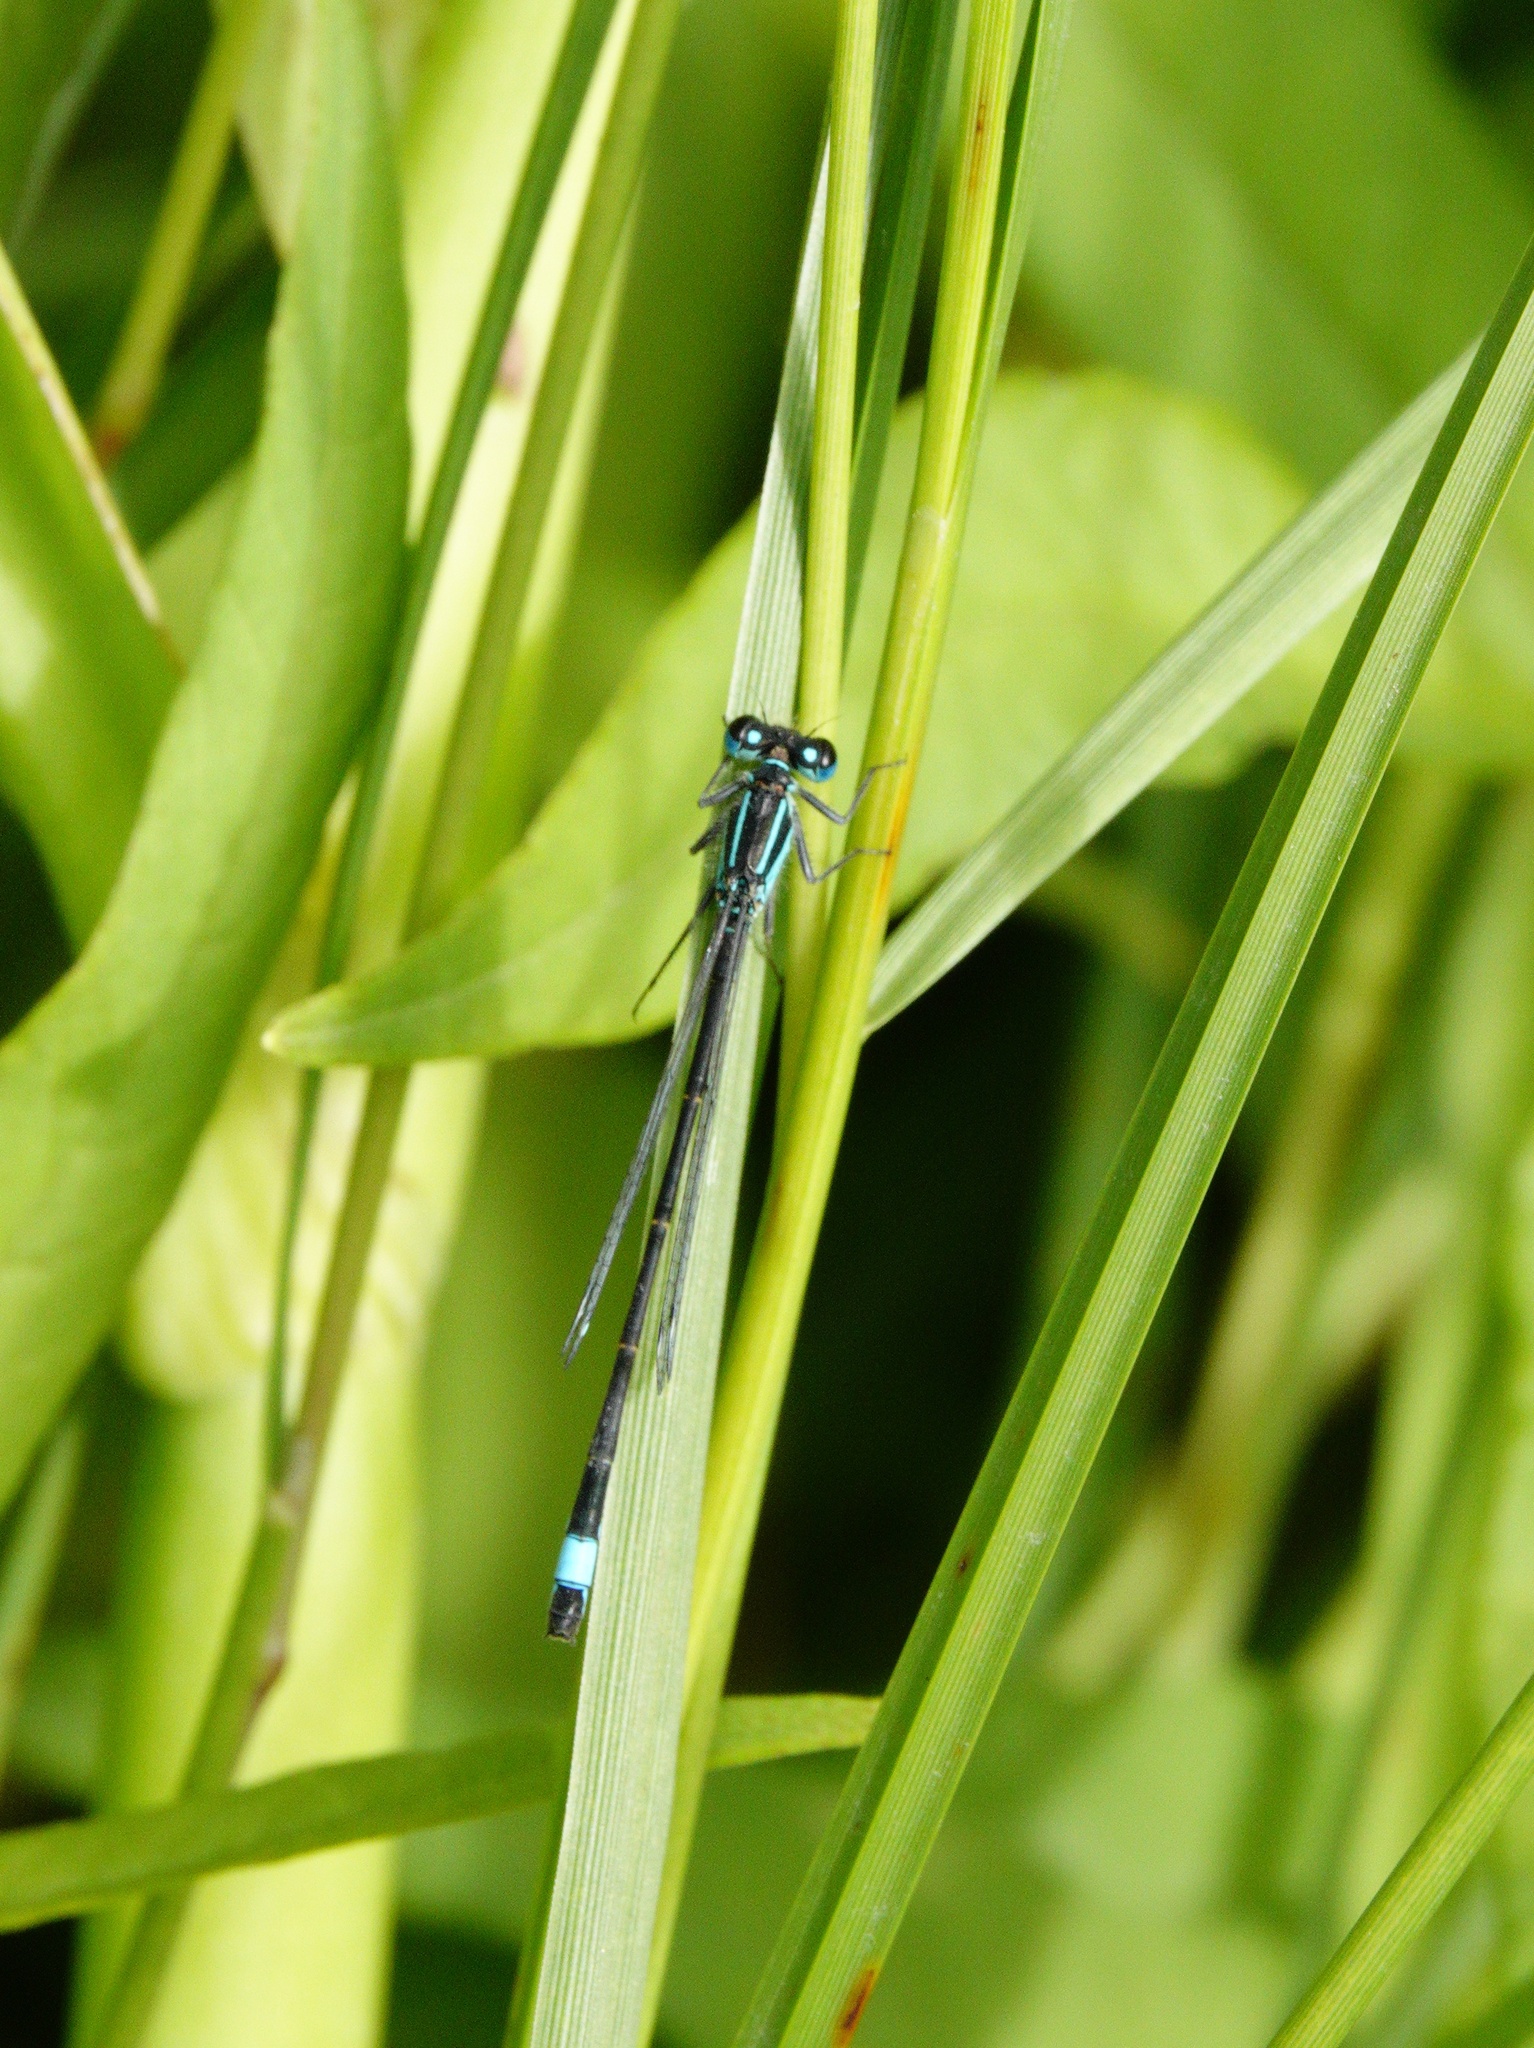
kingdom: Animalia
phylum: Arthropoda
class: Insecta
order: Odonata
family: Coenagrionidae
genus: Ischnura
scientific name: Ischnura elegans
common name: Blue-tailed damselfly
